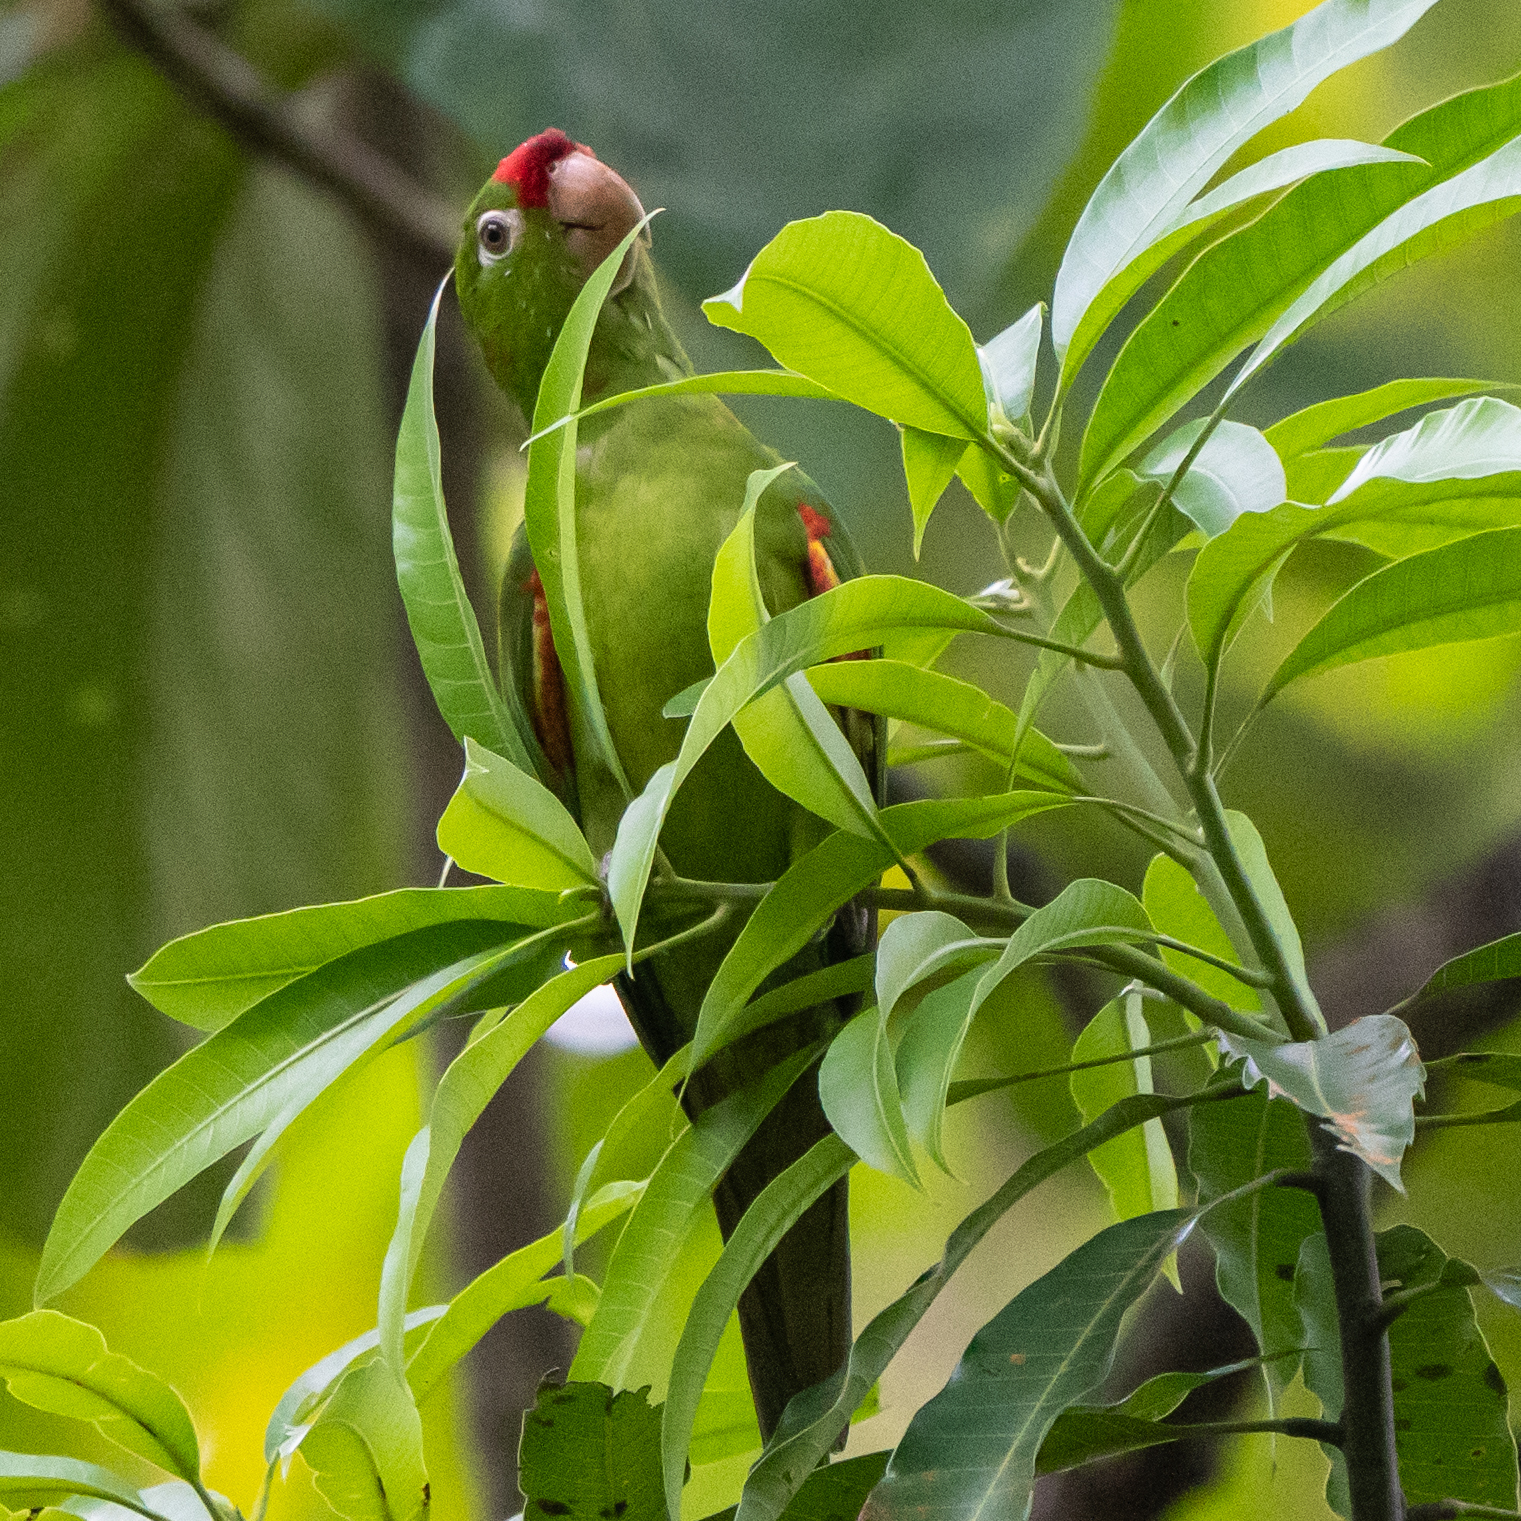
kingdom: Animalia
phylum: Chordata
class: Aves
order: Psittaciformes
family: Psittacidae
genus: Aratinga
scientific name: Aratinga finschi
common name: Crimson-fronted parakeet
